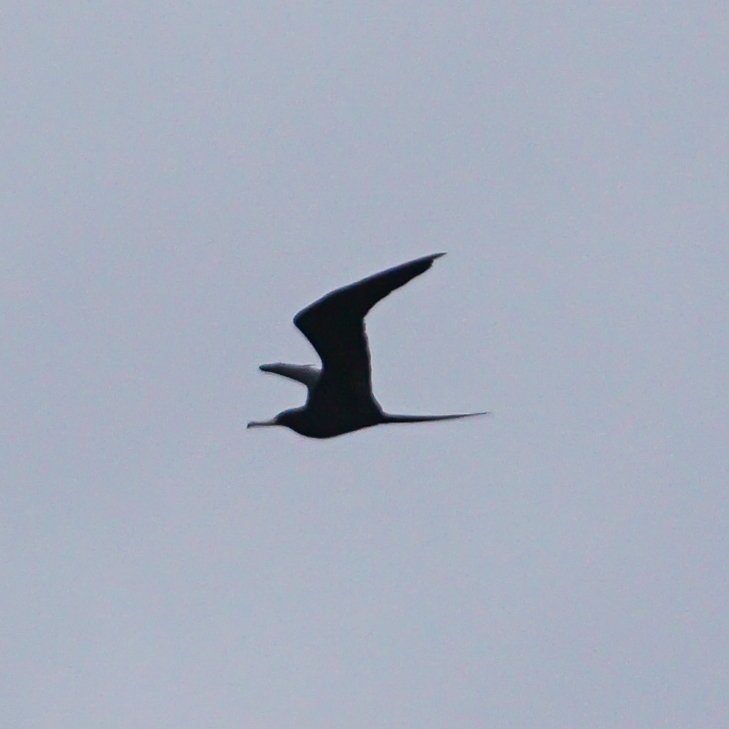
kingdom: Animalia
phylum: Chordata
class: Aves
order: Suliformes
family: Fregatidae
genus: Fregata
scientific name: Fregata magnificens
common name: Magnificent frigatebird
